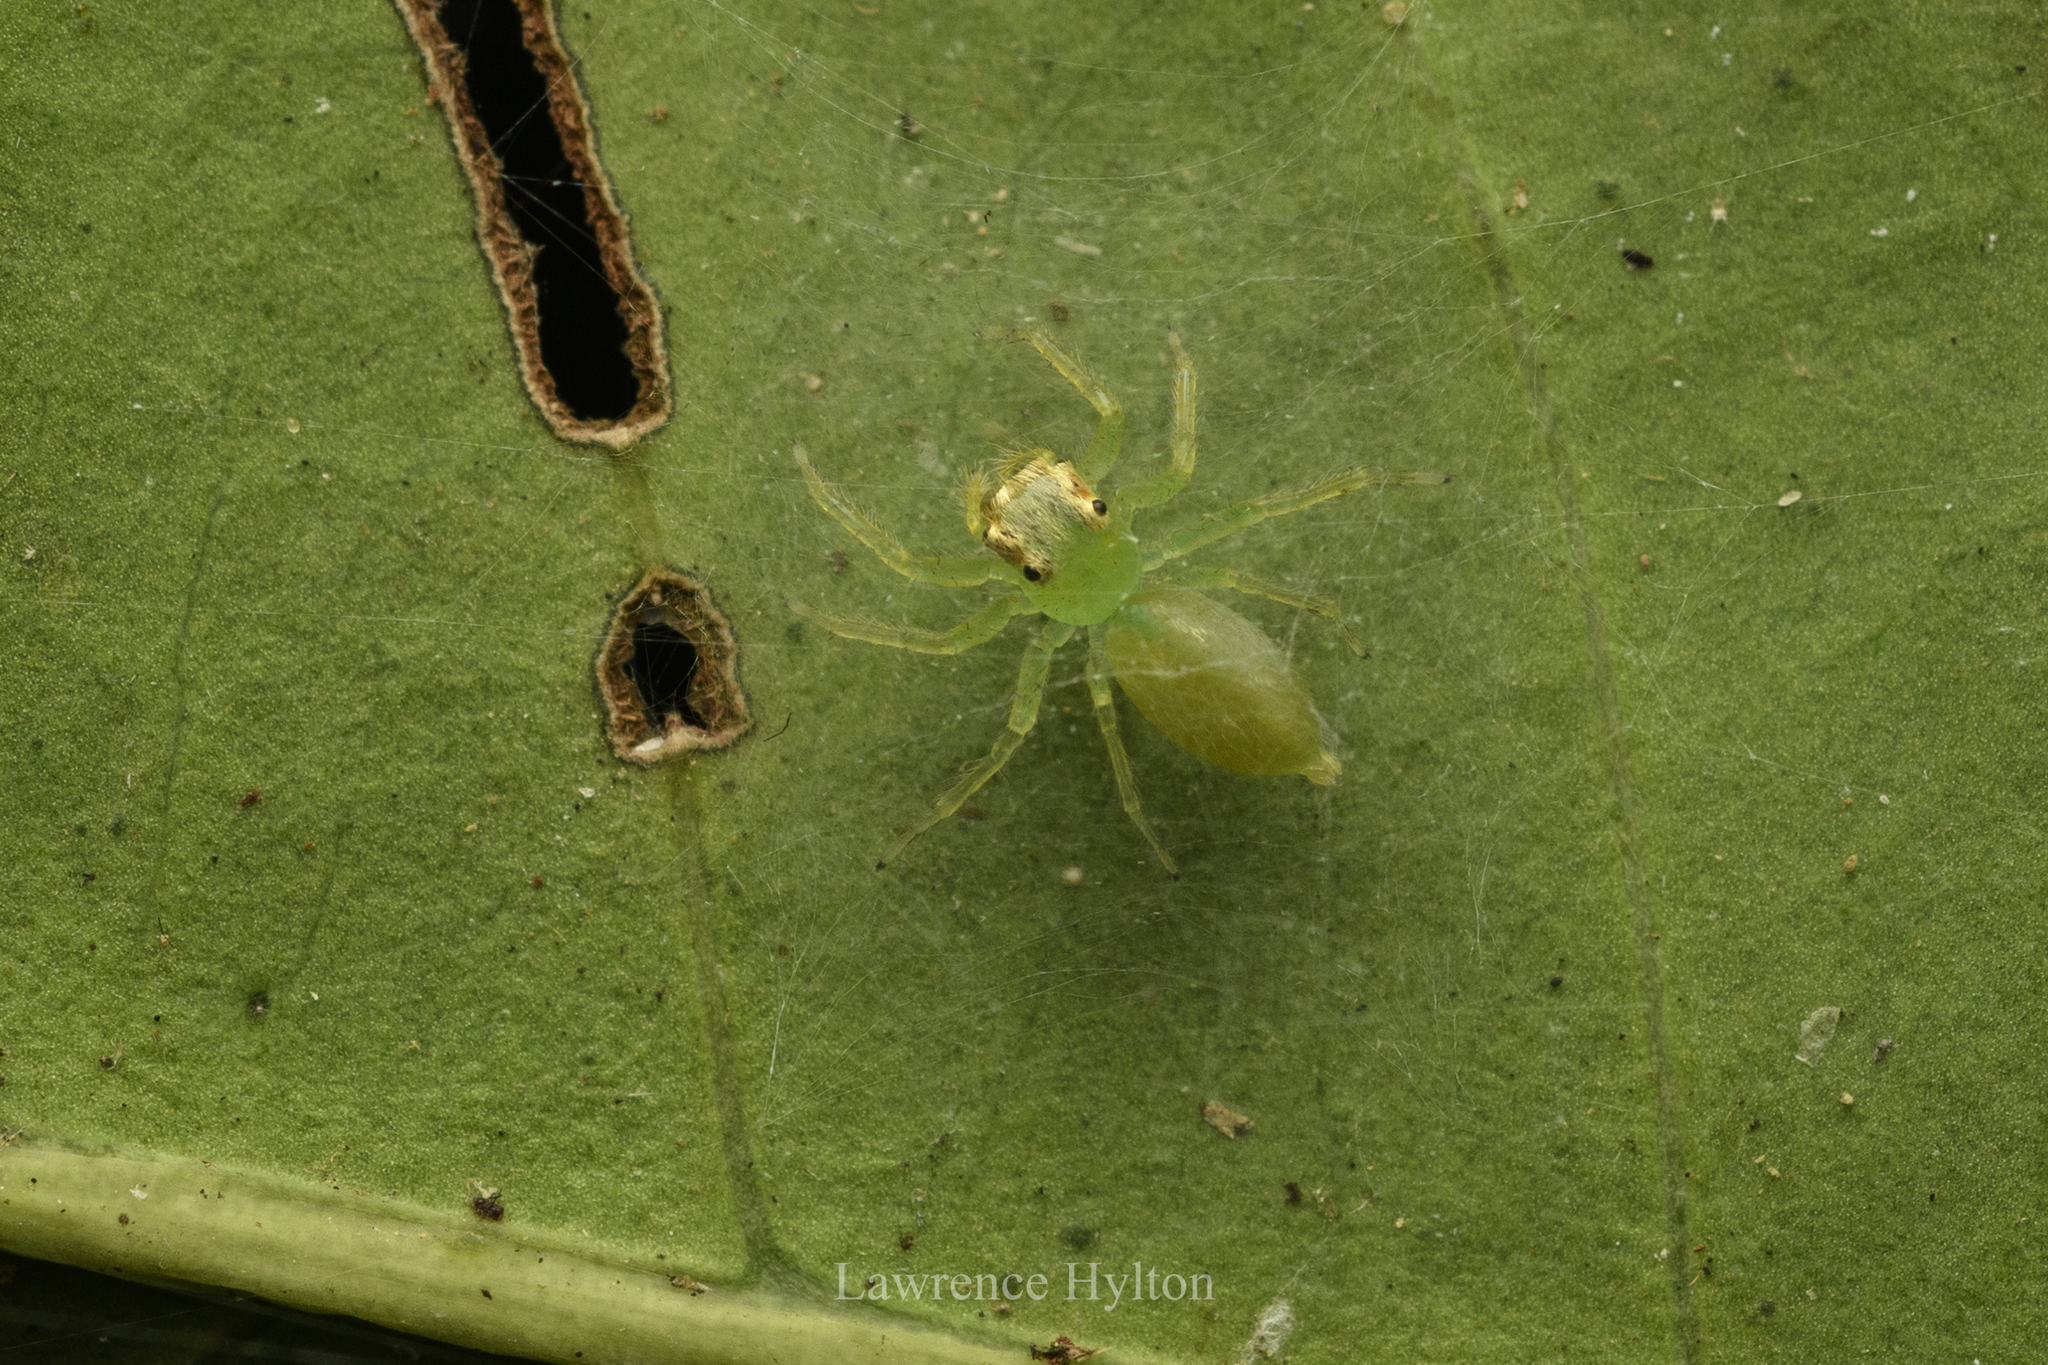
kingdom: Animalia
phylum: Arthropoda
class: Arachnida
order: Araneae
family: Salticidae
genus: Epeus
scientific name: Epeus glorius
